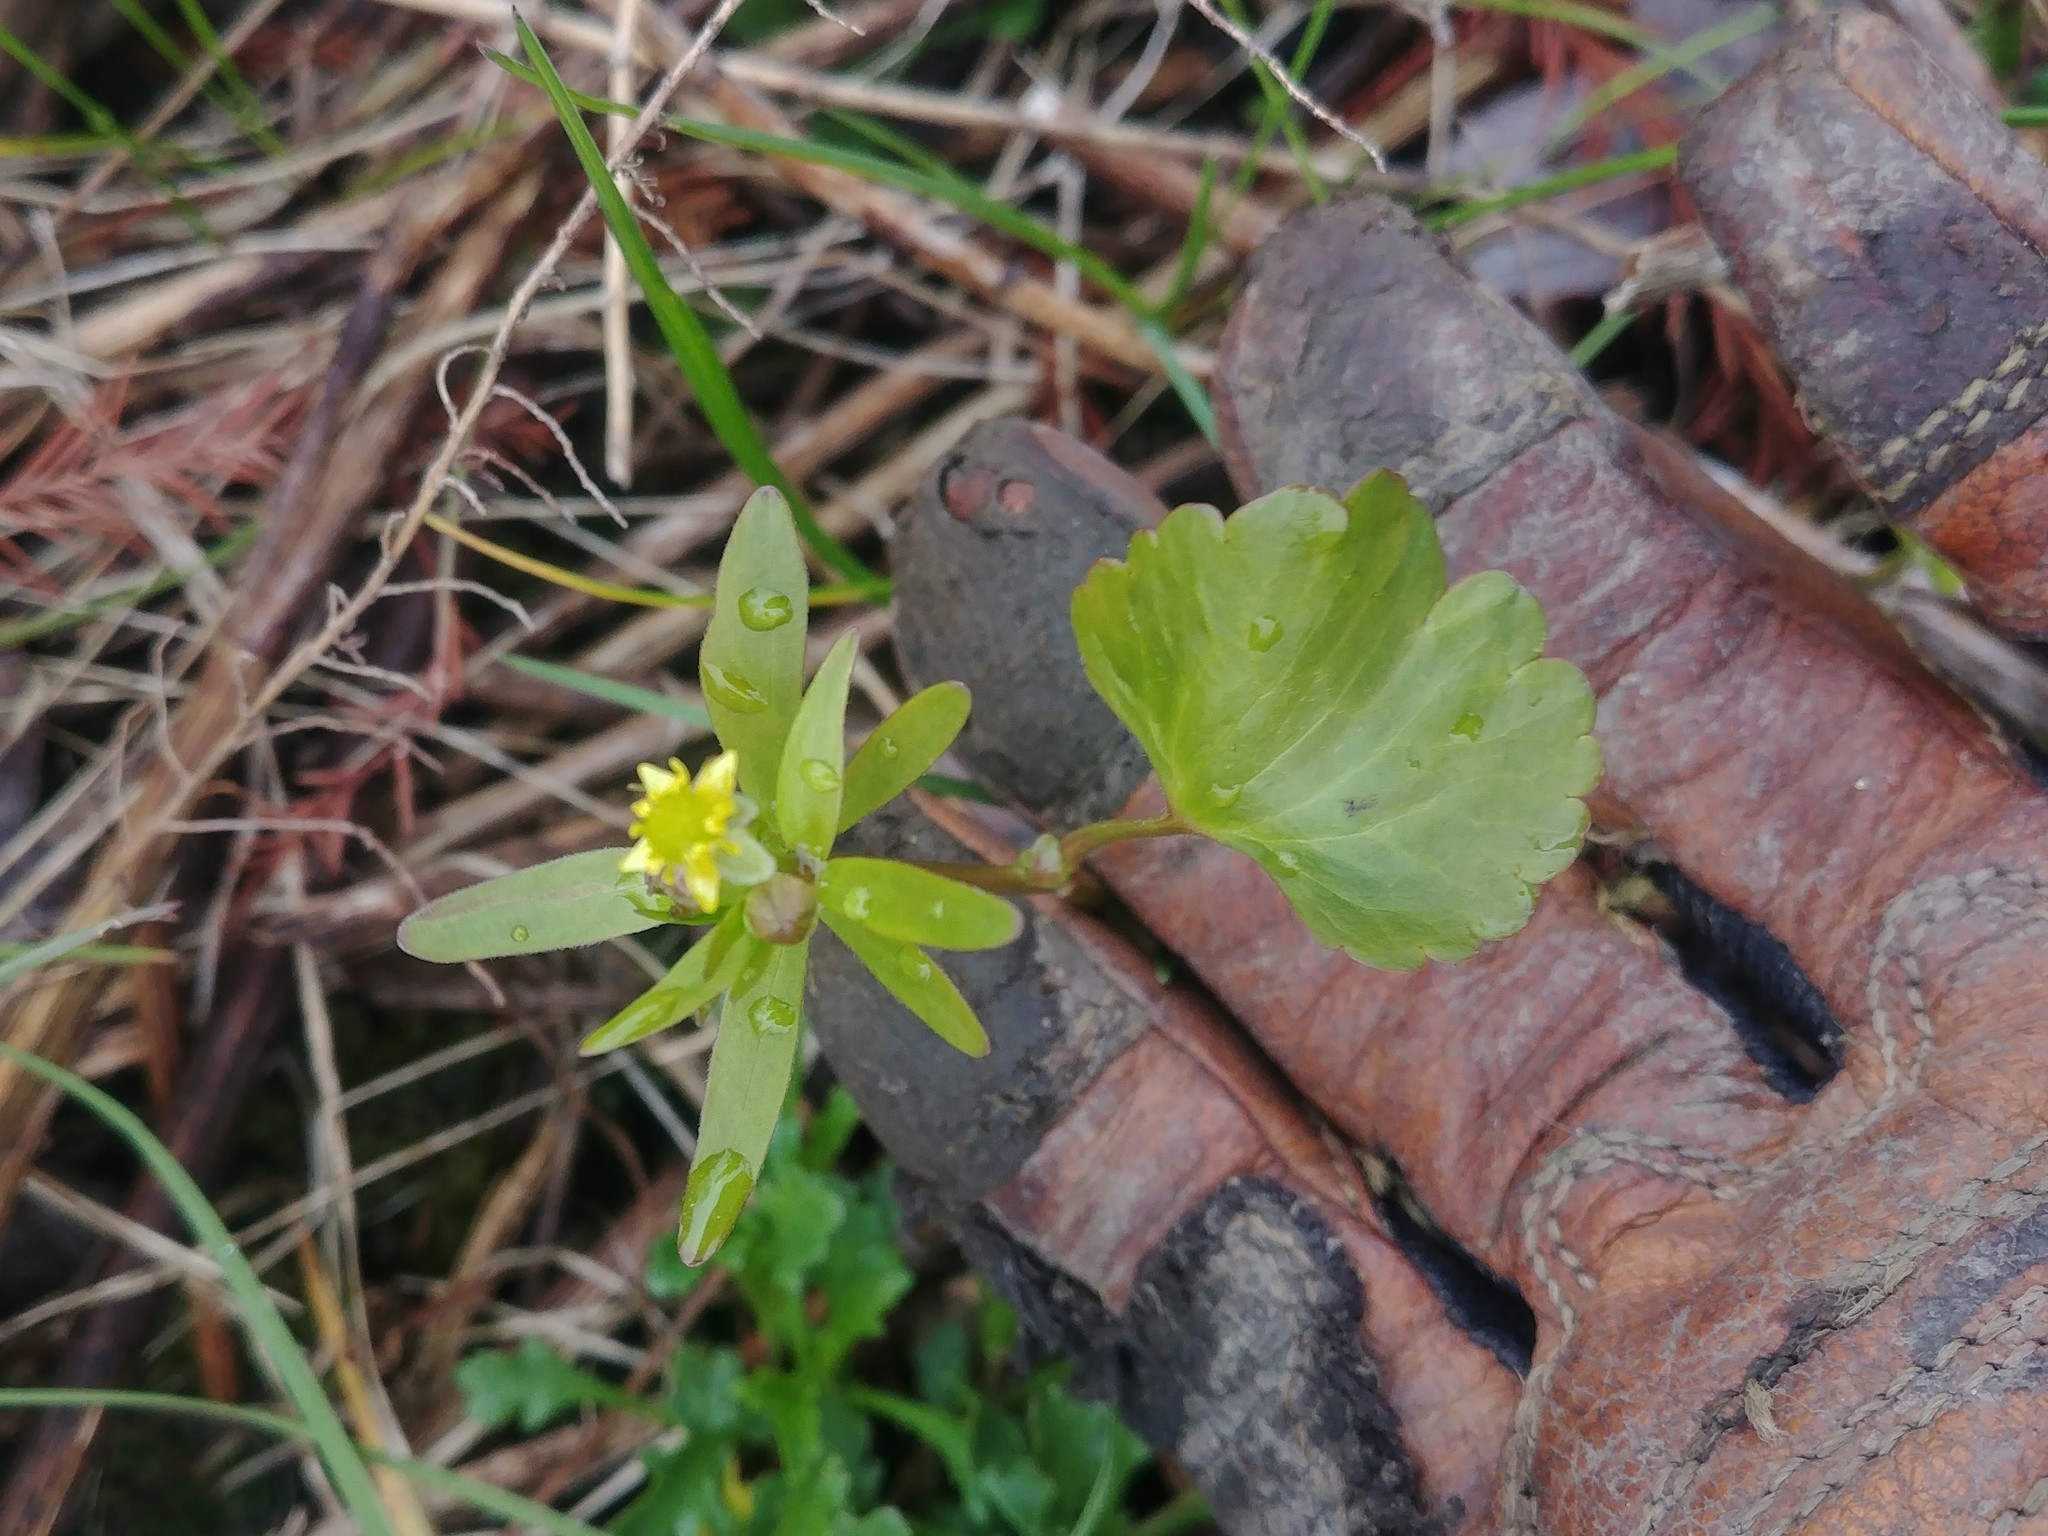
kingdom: Plantae
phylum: Tracheophyta
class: Magnoliopsida
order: Ranunculales
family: Ranunculaceae
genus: Ranunculus
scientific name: Ranunculus abortivus
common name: Early wood buttercup
